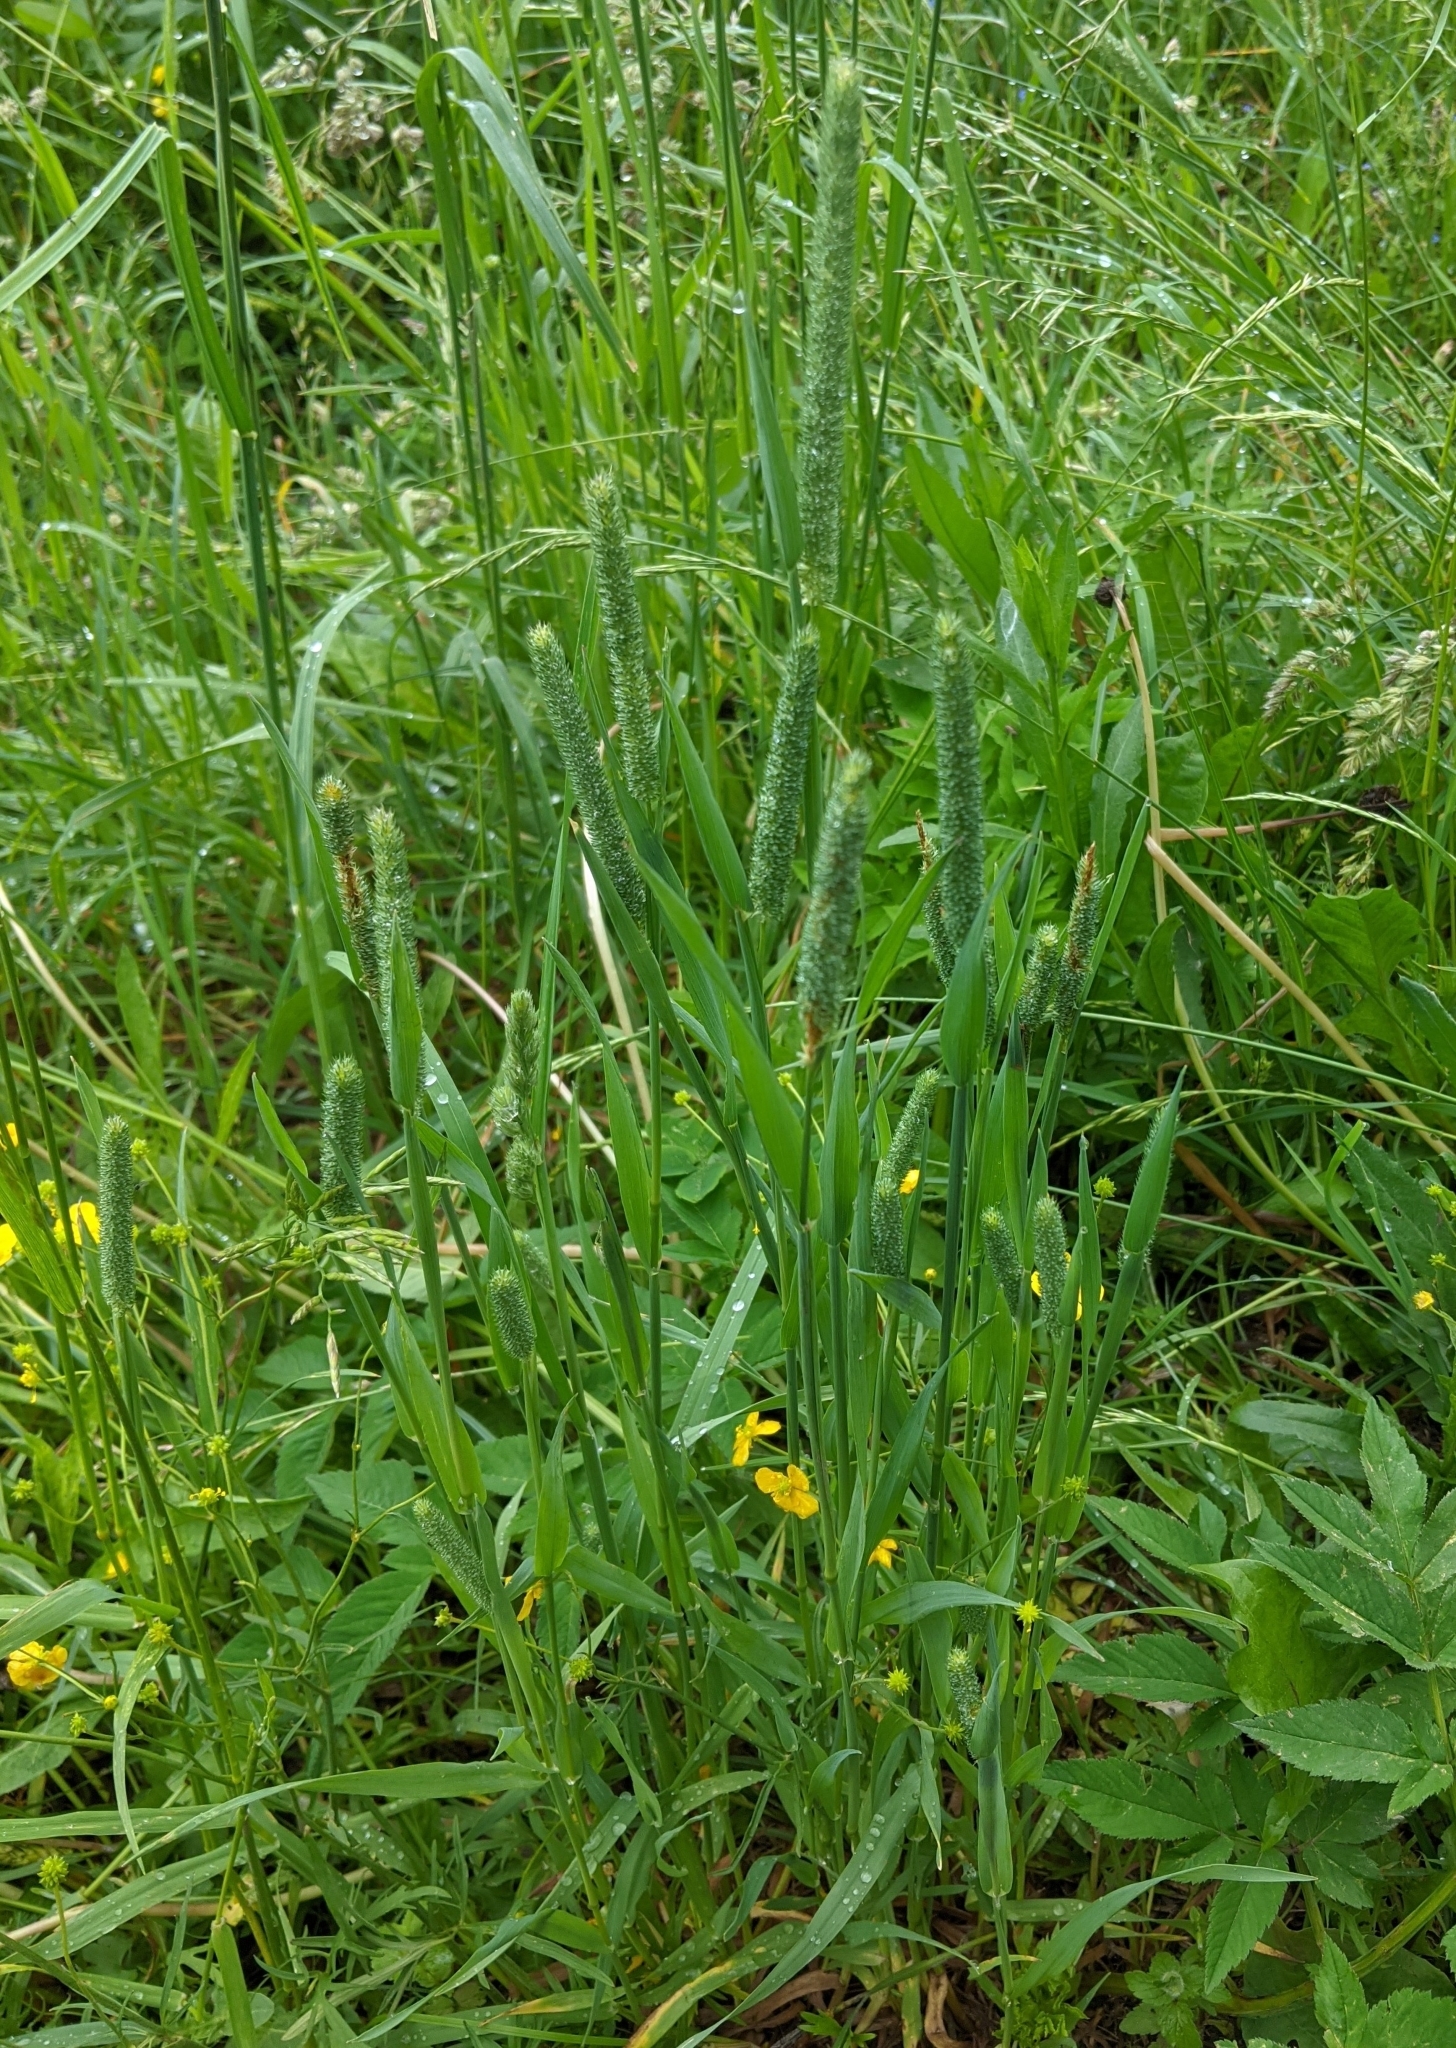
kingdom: Plantae
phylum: Tracheophyta
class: Liliopsida
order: Poales
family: Poaceae
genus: Phleum
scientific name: Phleum pratense
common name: Timothy grass
